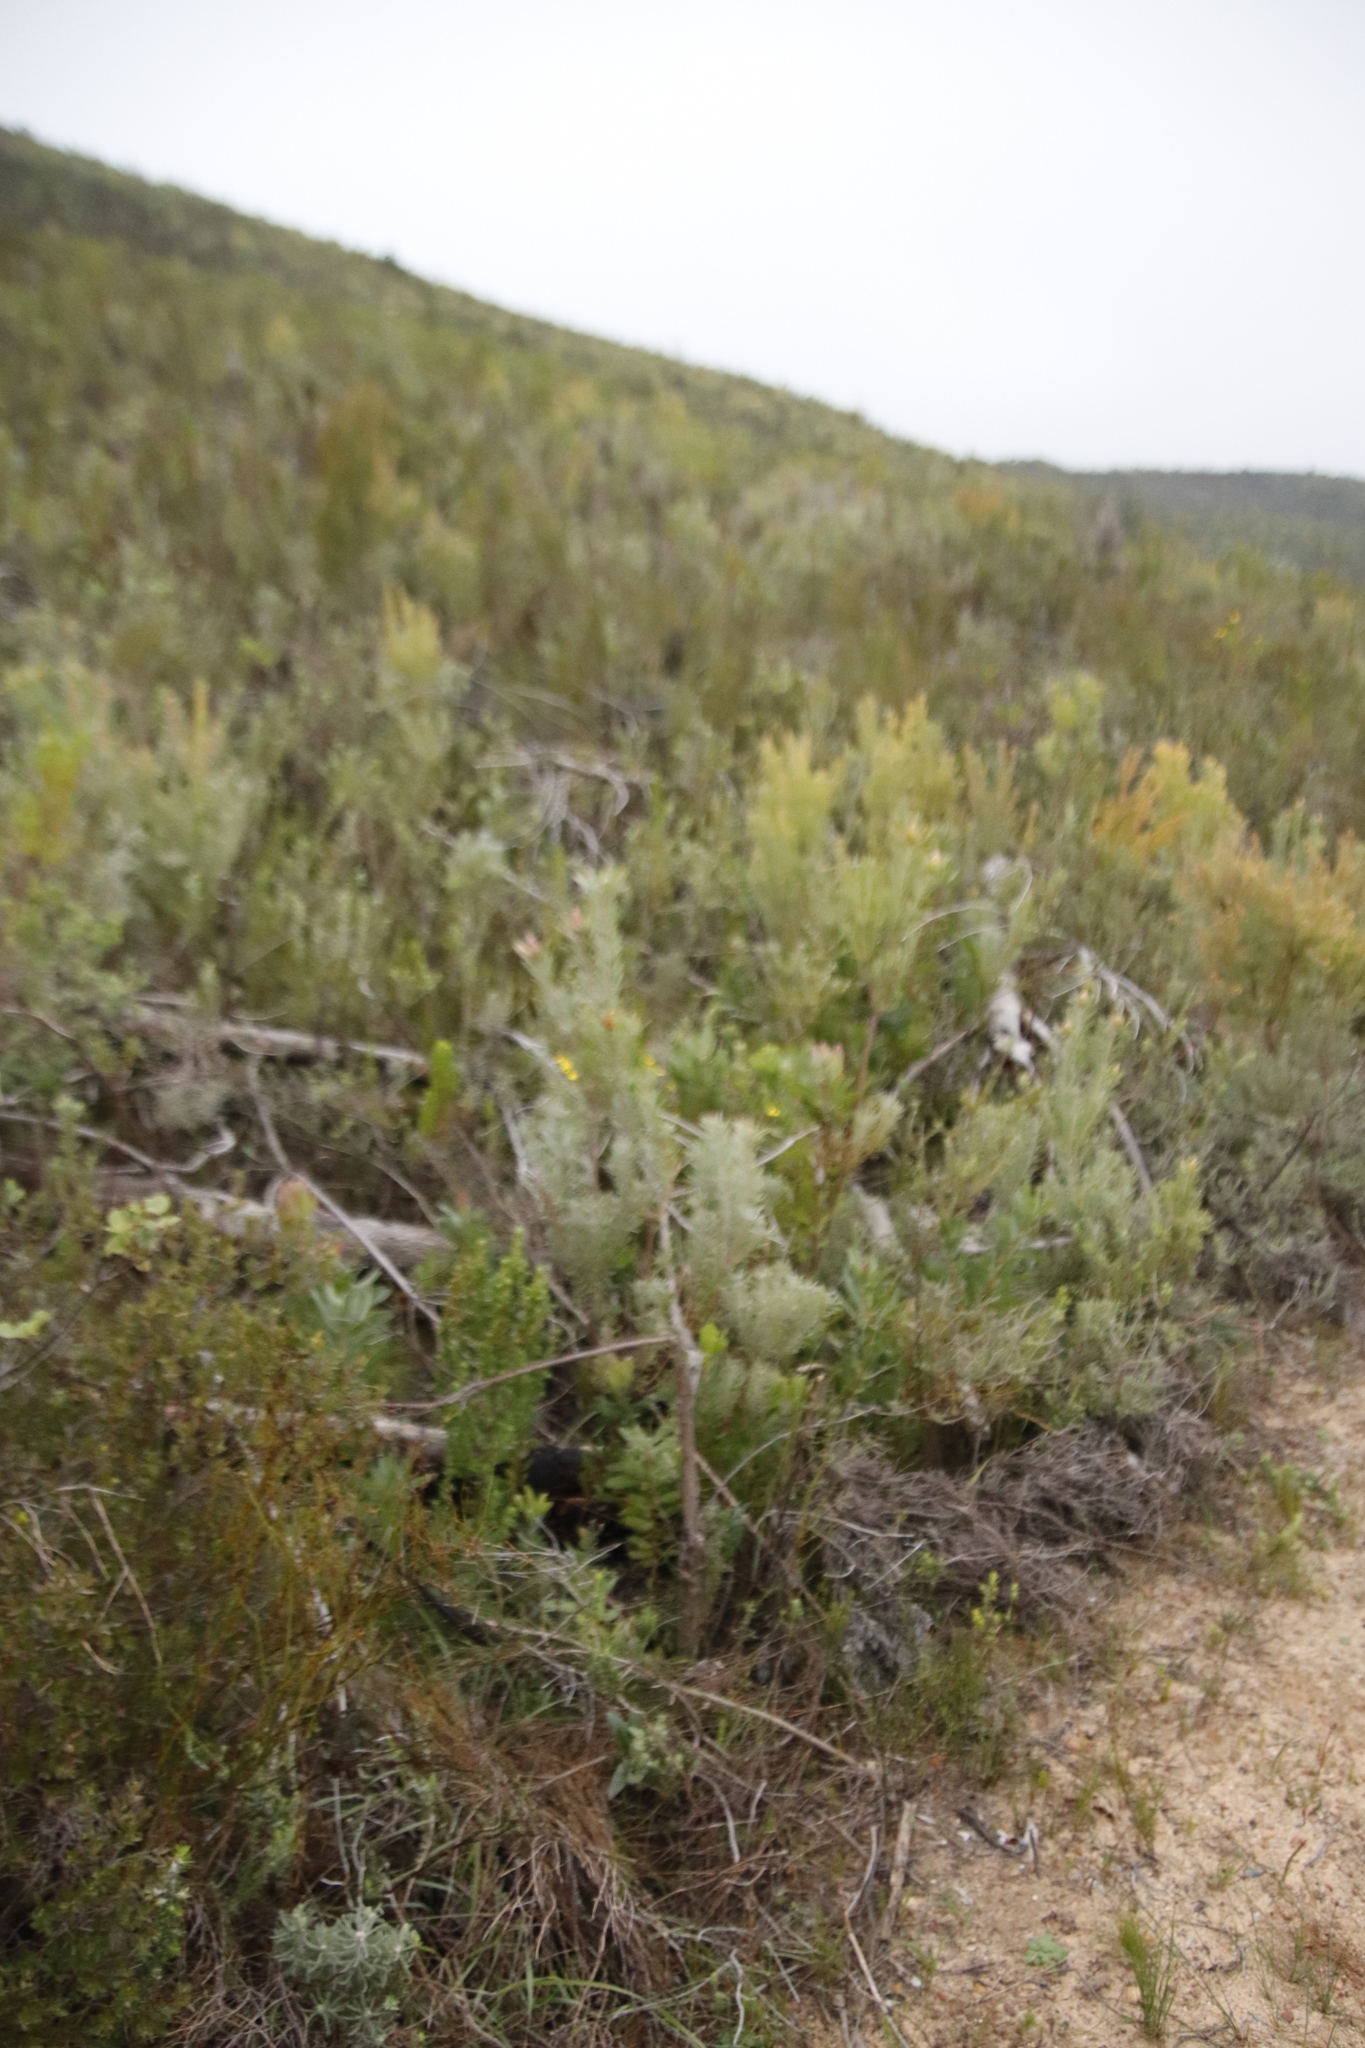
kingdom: Plantae
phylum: Tracheophyta
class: Magnoliopsida
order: Proteales
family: Proteaceae
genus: Leucadendron
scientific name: Leucadendron rubrum
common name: Spinning top
